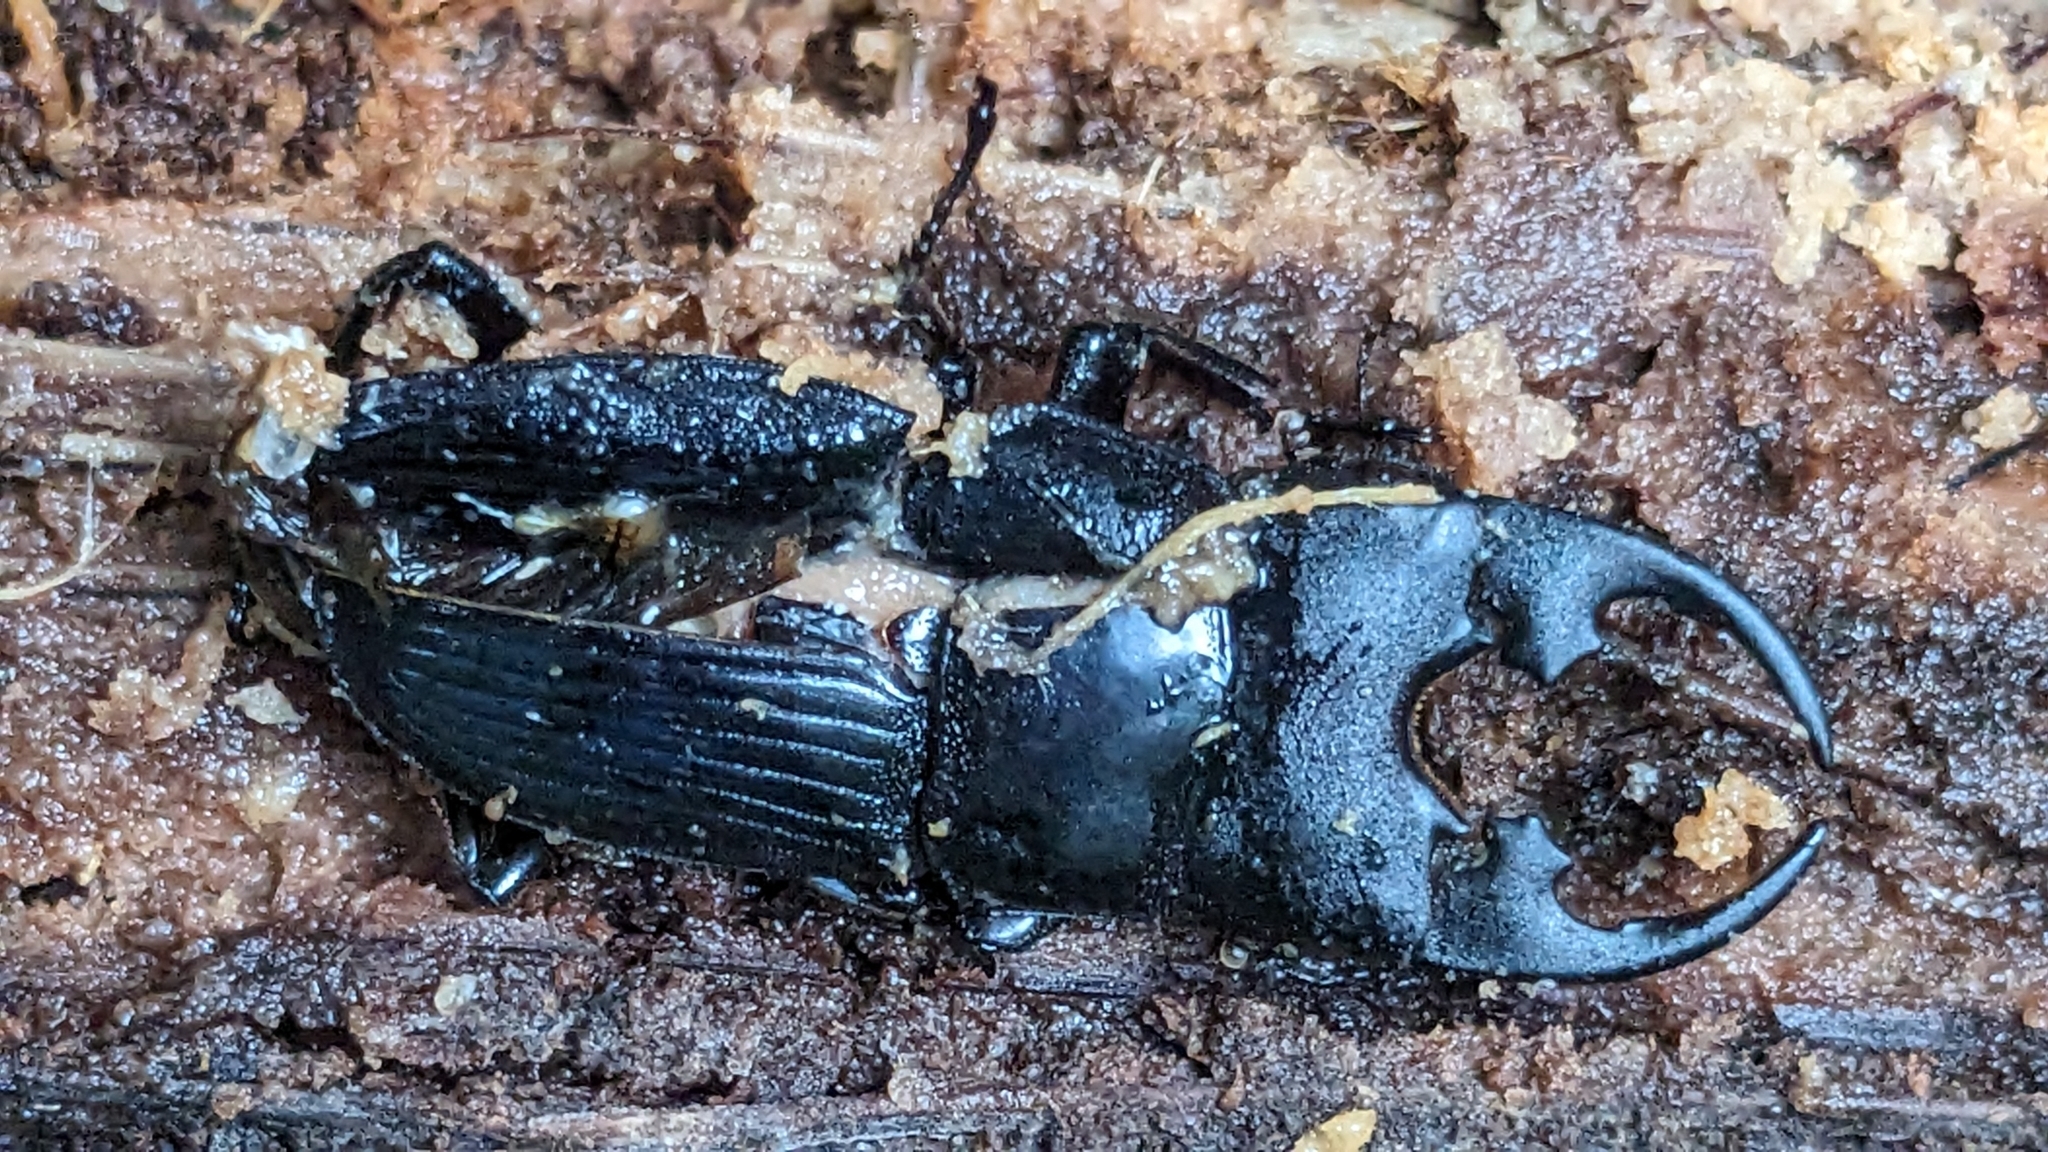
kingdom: Animalia
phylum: Arthropoda
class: Insecta
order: Coleoptera
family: Lucanidae
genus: Aegus
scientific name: Aegus platyodon
